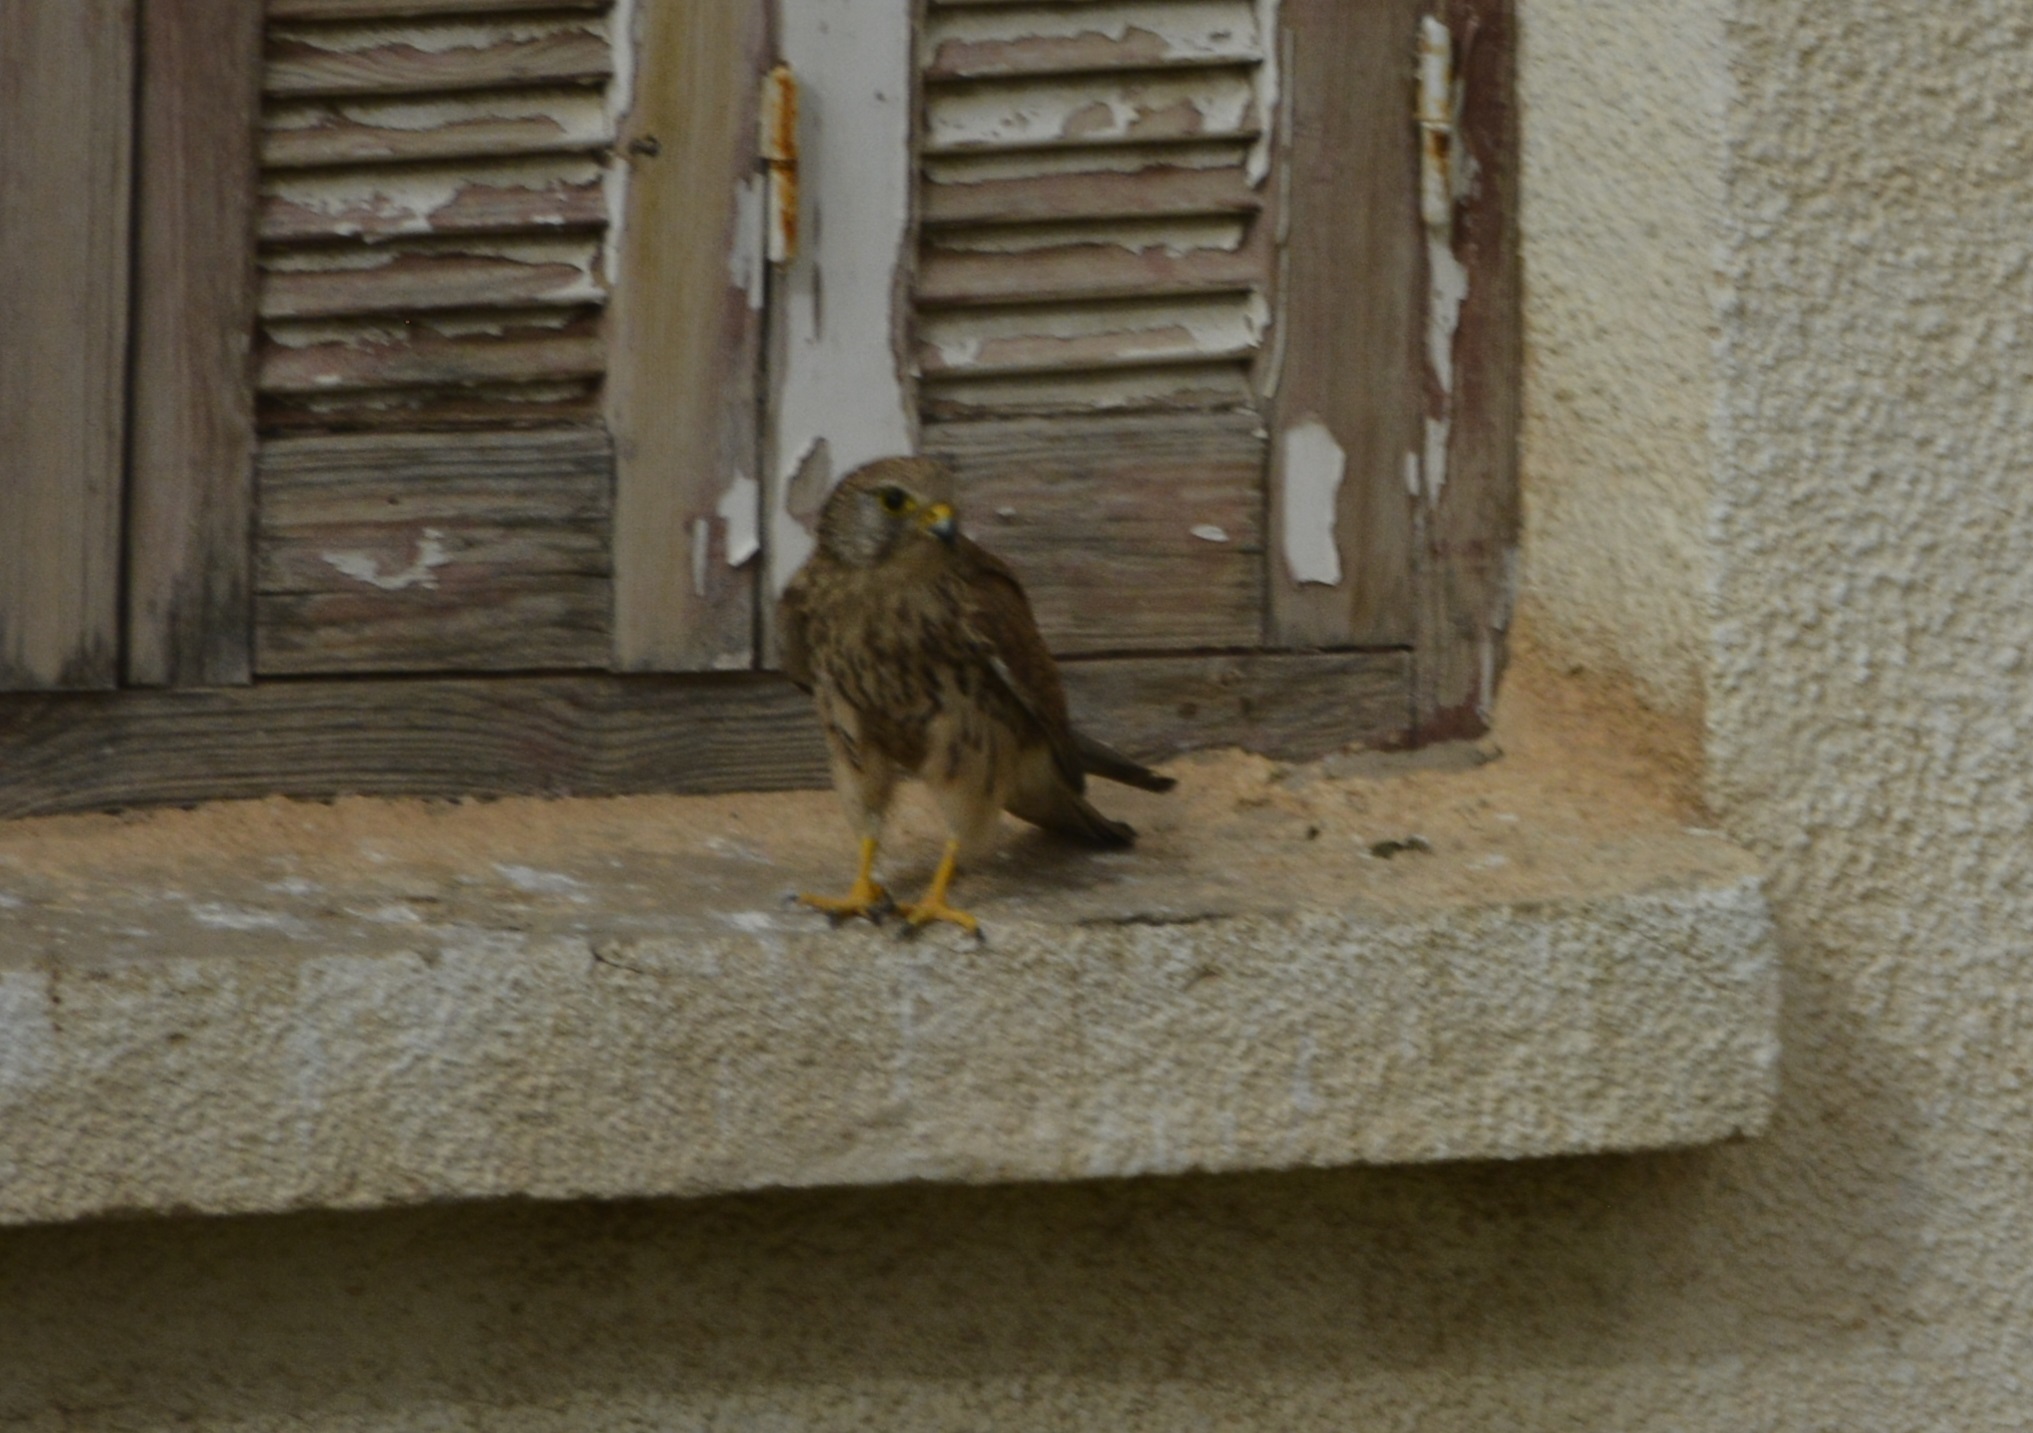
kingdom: Animalia
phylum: Chordata
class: Aves
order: Falconiformes
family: Falconidae
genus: Falco
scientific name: Falco tinnunculus
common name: Common kestrel
